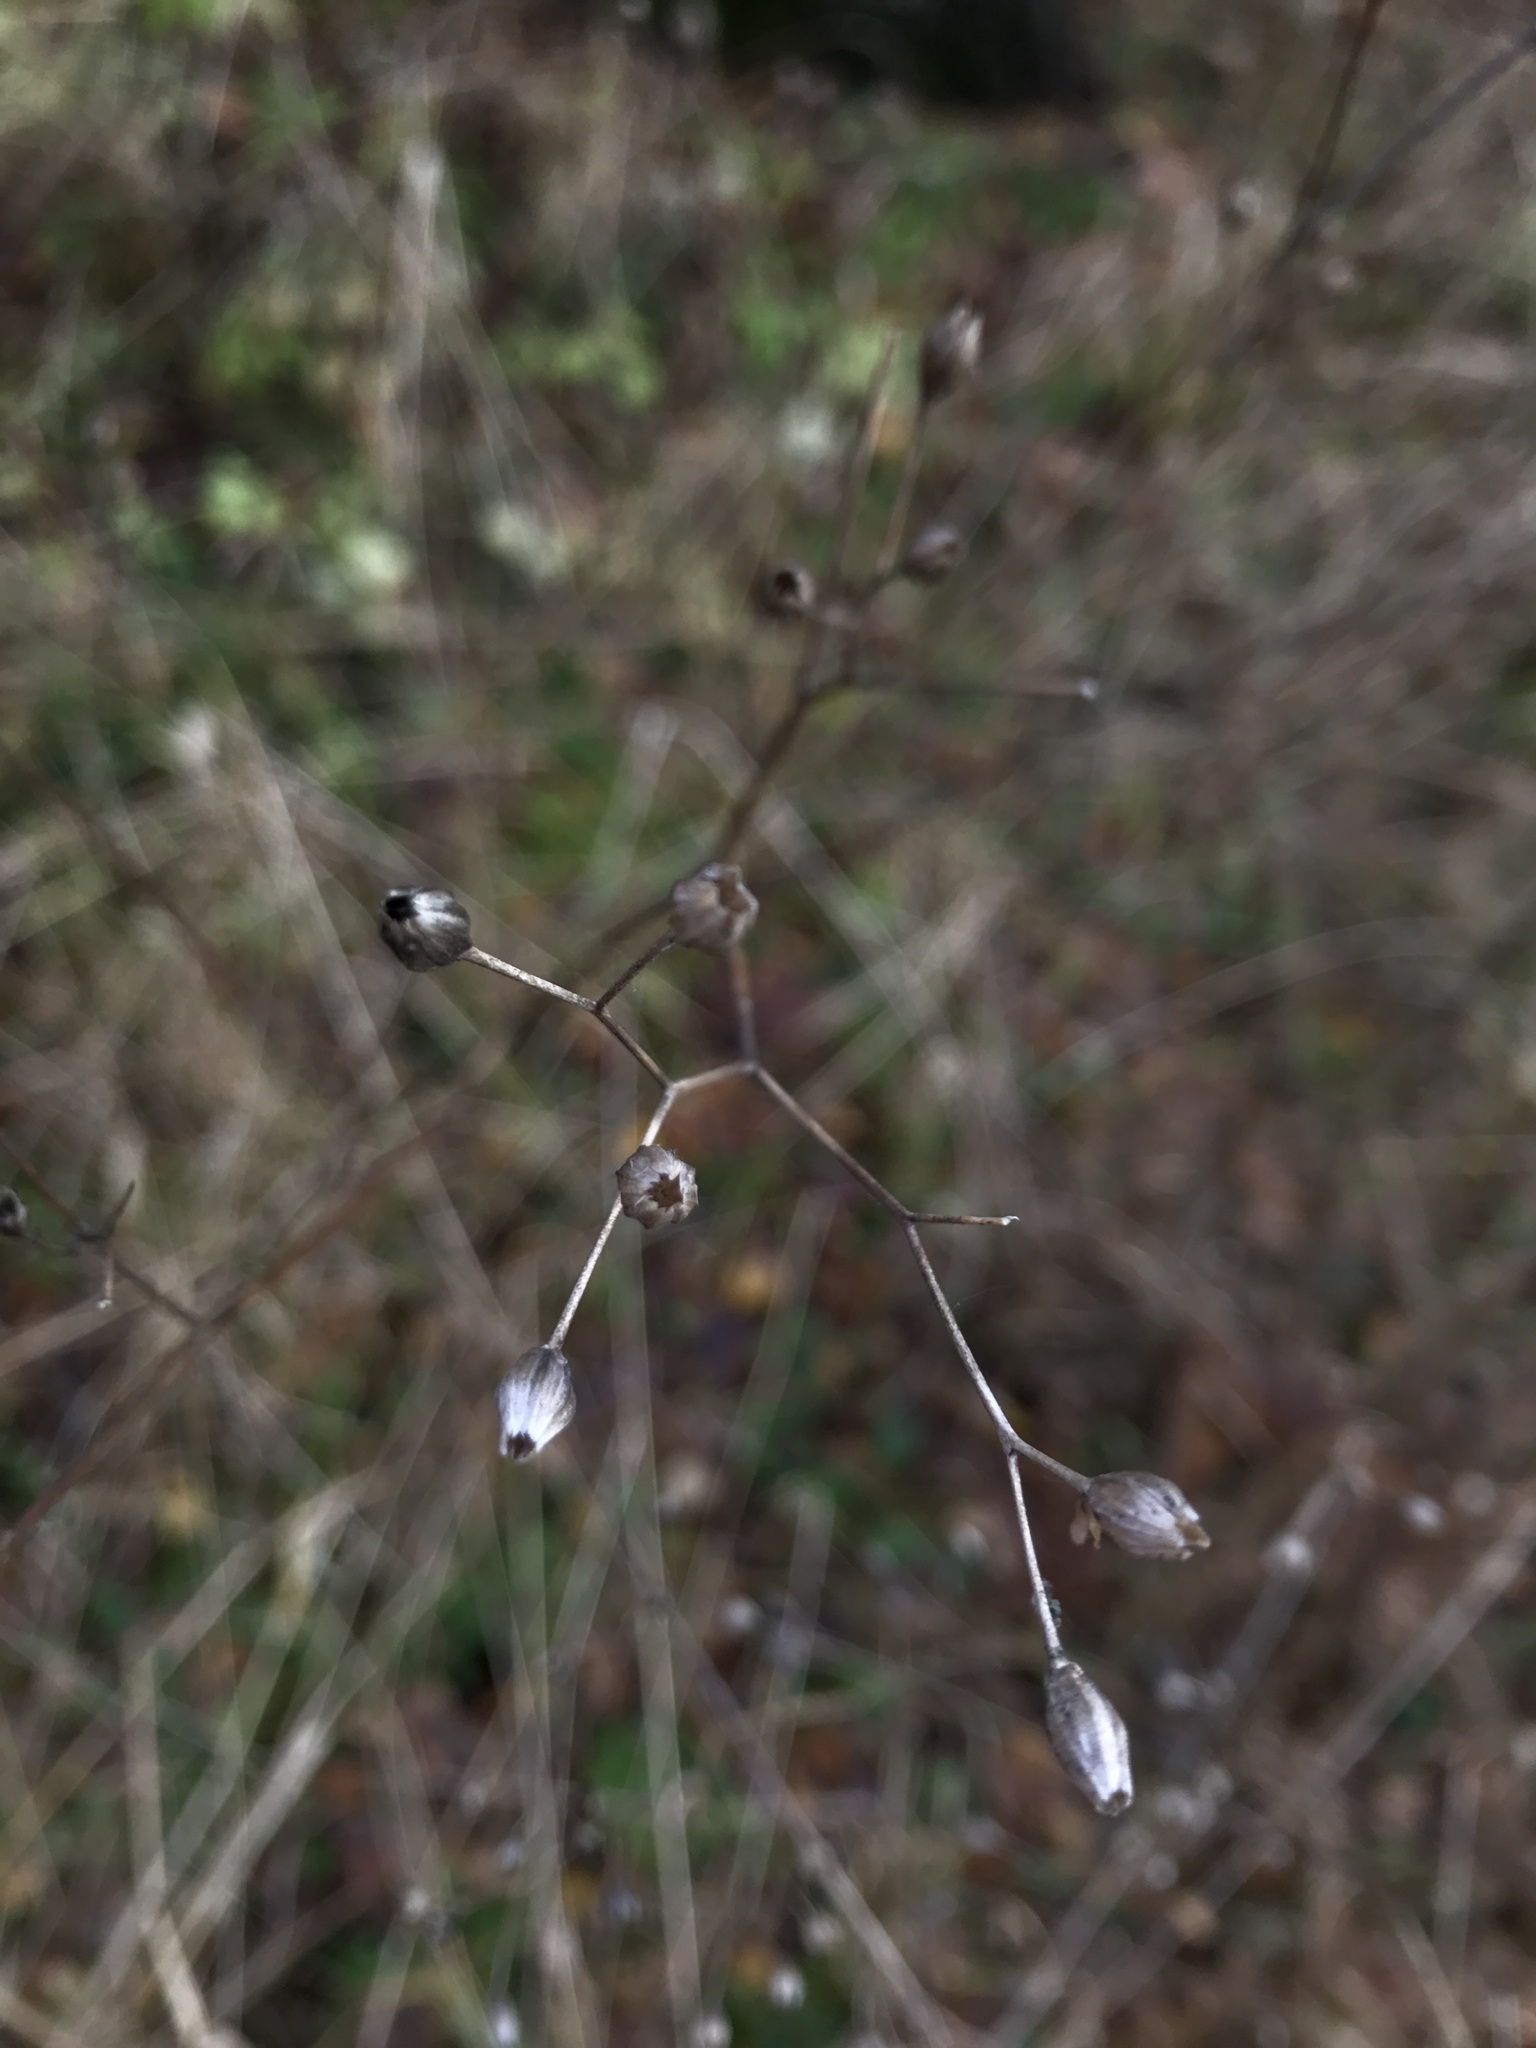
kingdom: Plantae
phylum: Tracheophyta
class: Magnoliopsida
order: Asterales
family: Asteraceae
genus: Lapsana
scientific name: Lapsana communis
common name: Nipplewort
